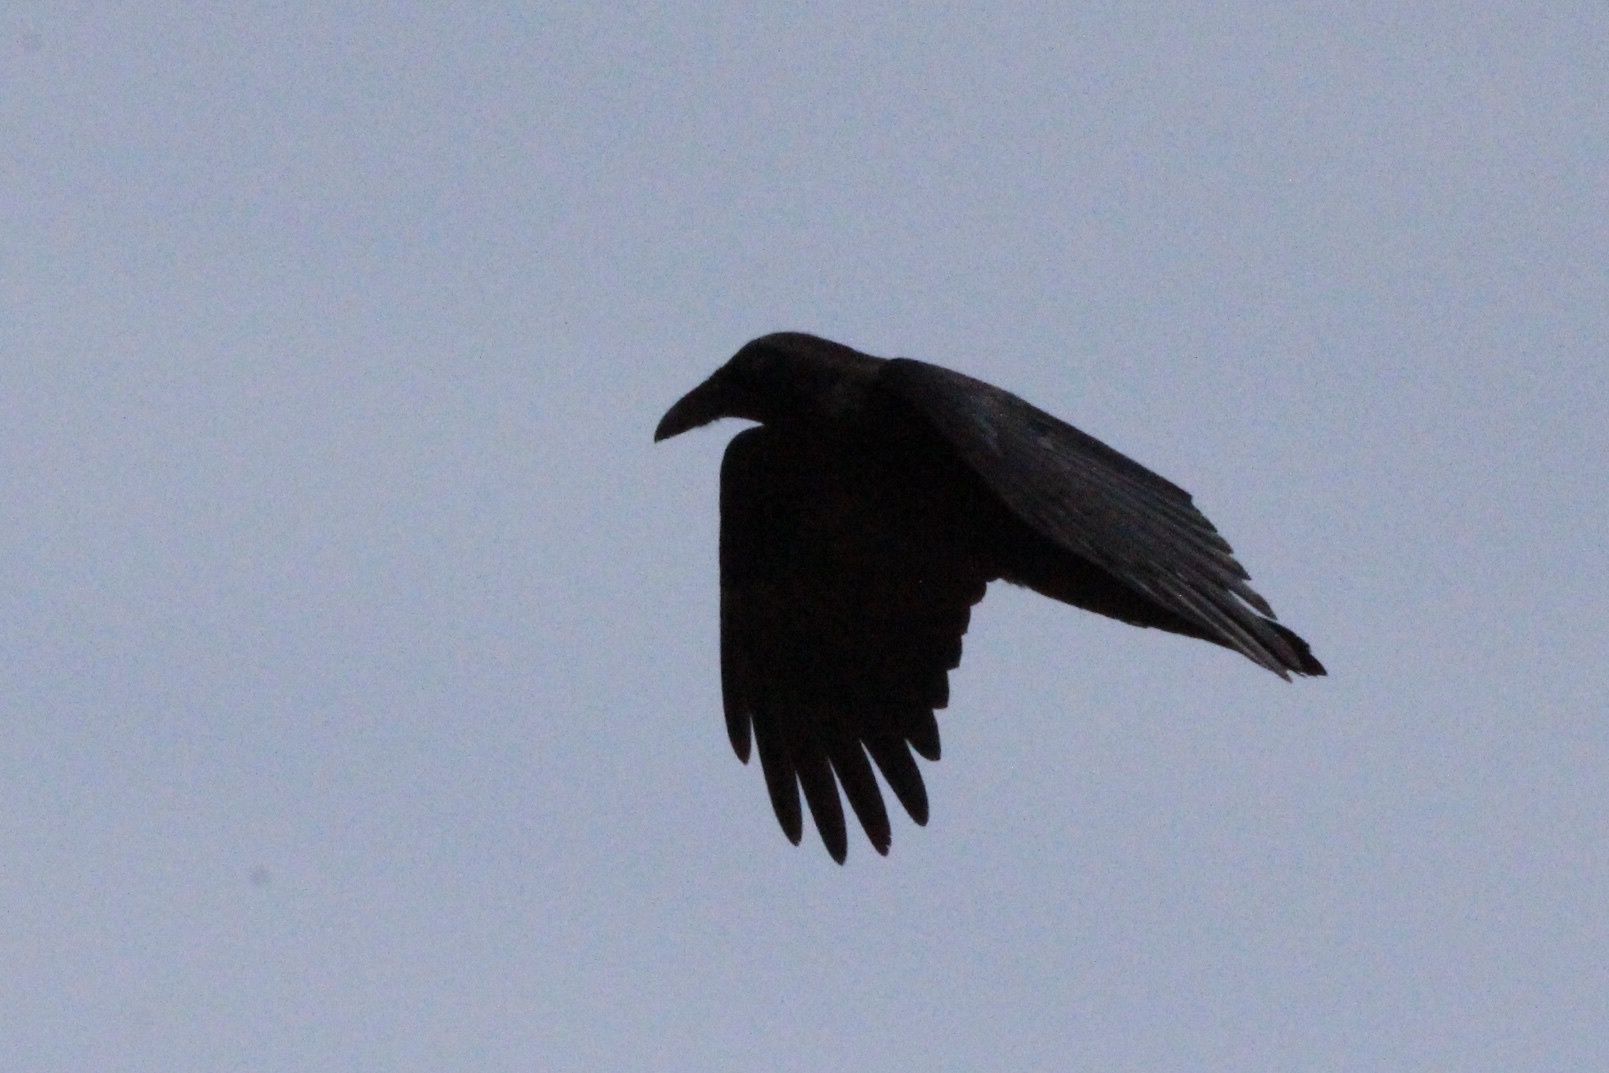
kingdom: Animalia
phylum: Chordata
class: Aves
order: Passeriformes
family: Corvidae
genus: Corvus
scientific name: Corvus corax
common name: Common raven
